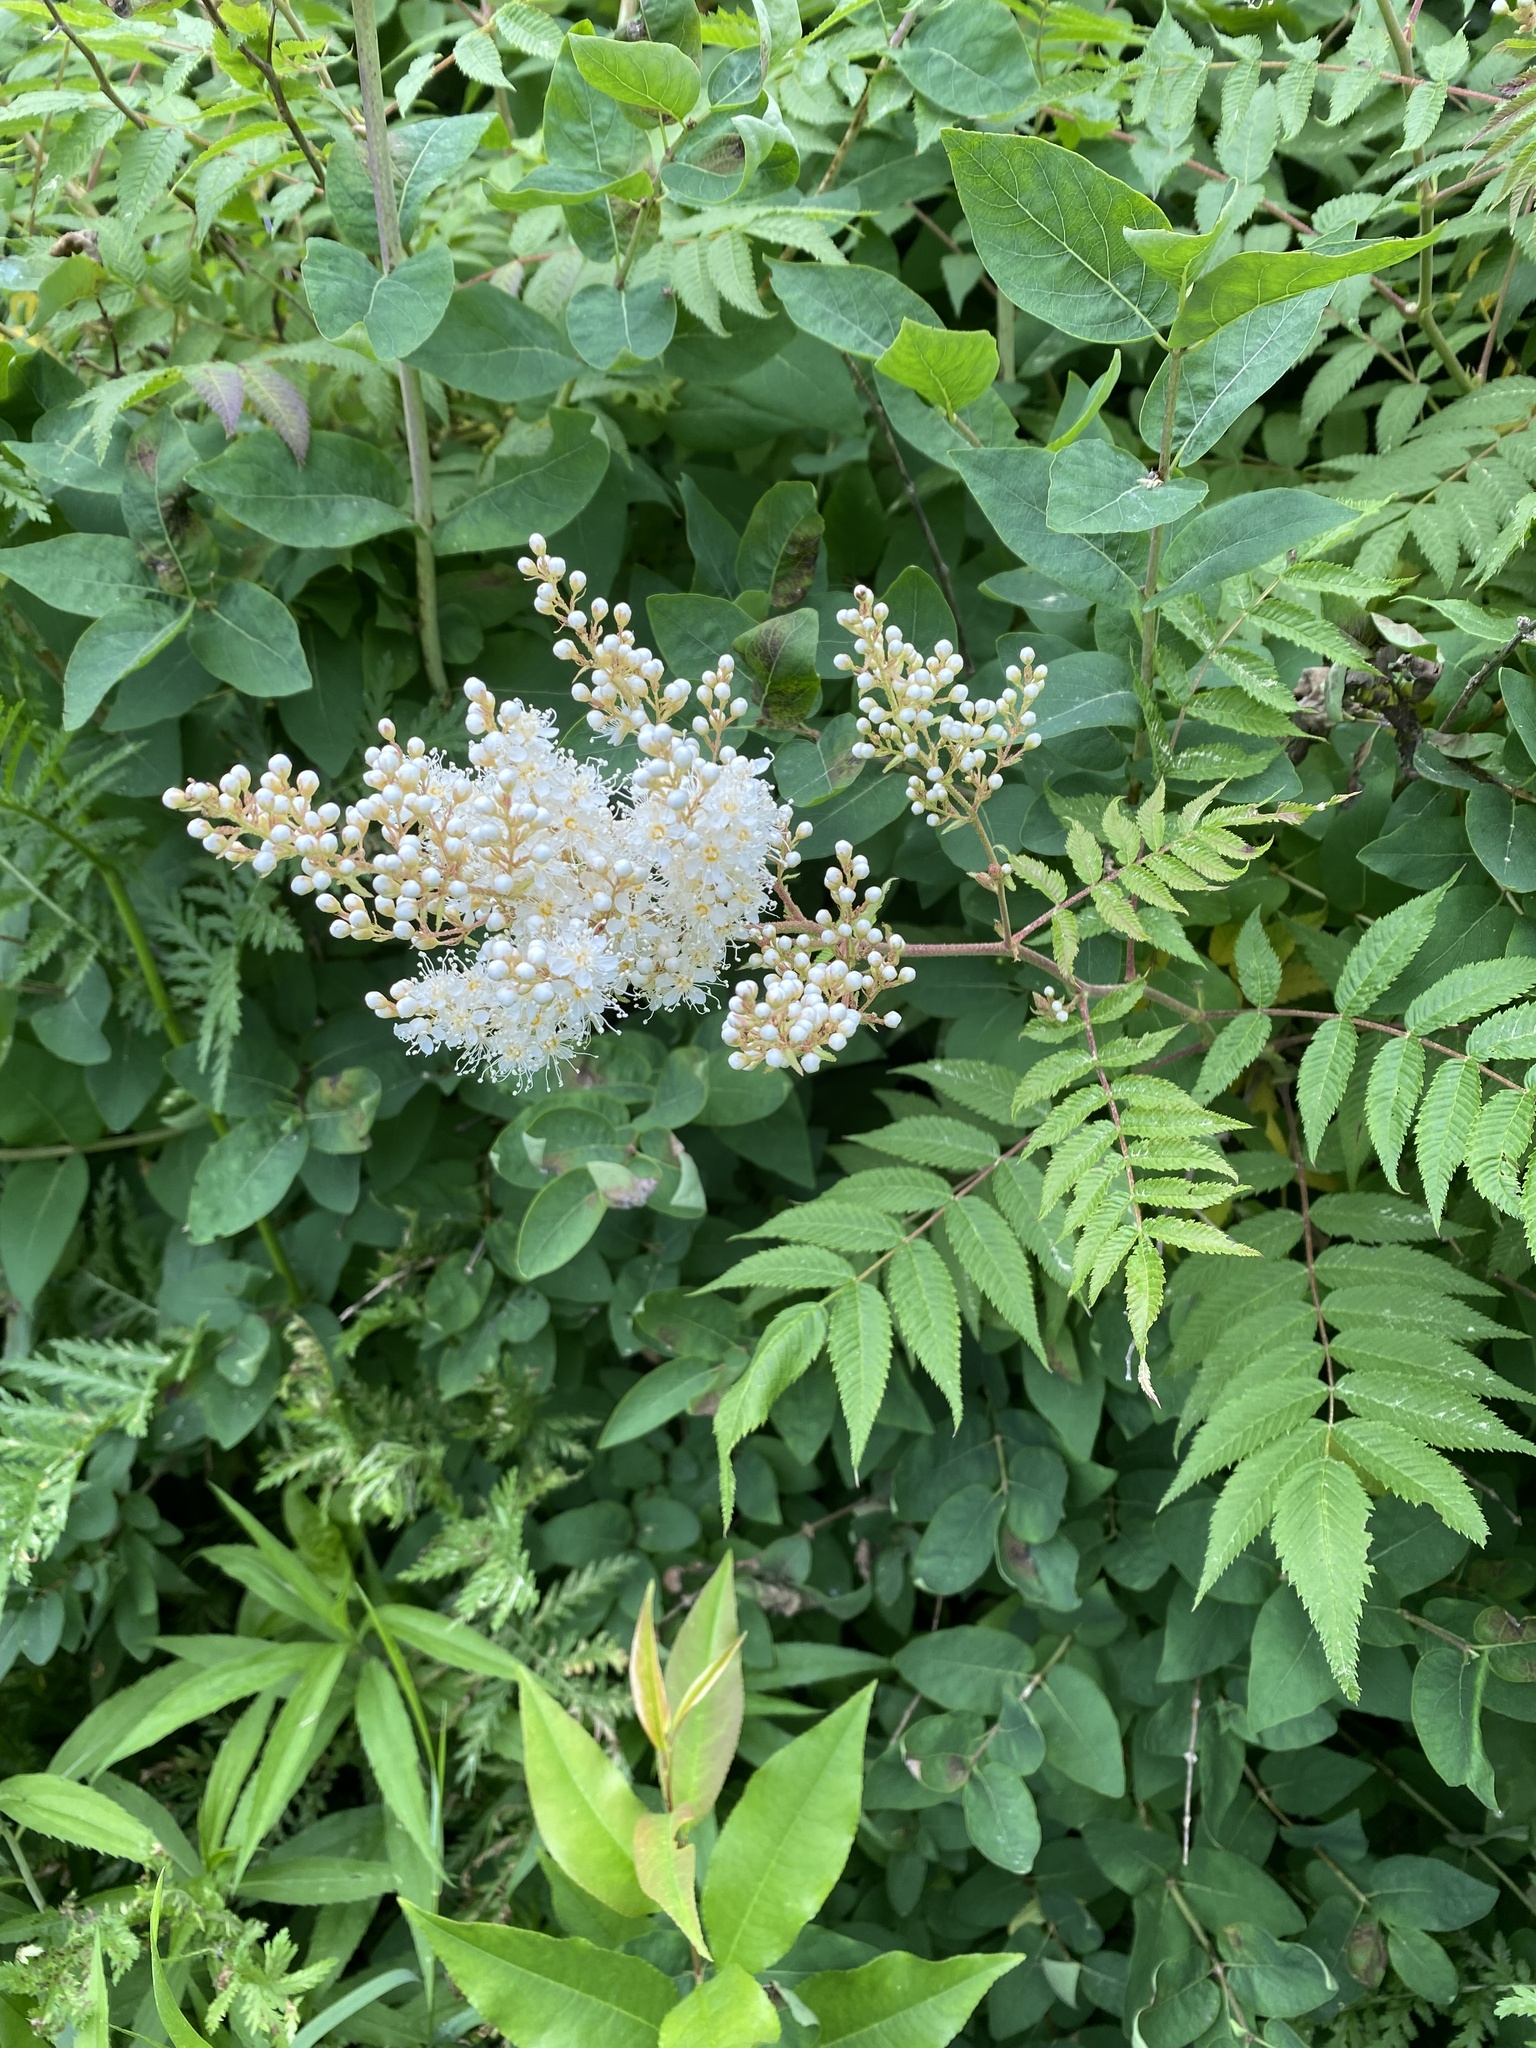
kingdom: Plantae
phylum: Tracheophyta
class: Magnoliopsida
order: Rosales
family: Rosaceae
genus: Sorbaria
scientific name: Sorbaria sorbifolia
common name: False spiraea
